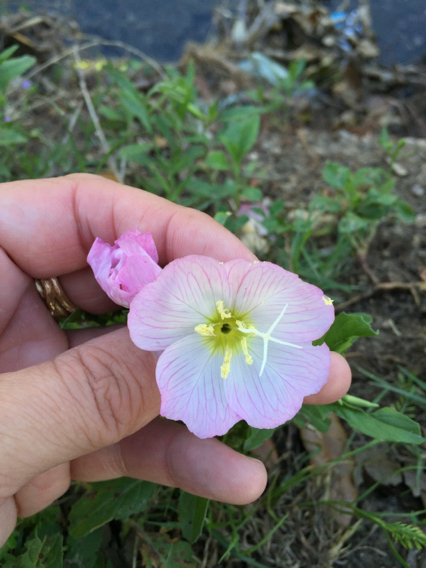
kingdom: Plantae
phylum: Tracheophyta
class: Magnoliopsida
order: Myrtales
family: Onagraceae
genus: Oenothera
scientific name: Oenothera speciosa
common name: White evening-primrose
